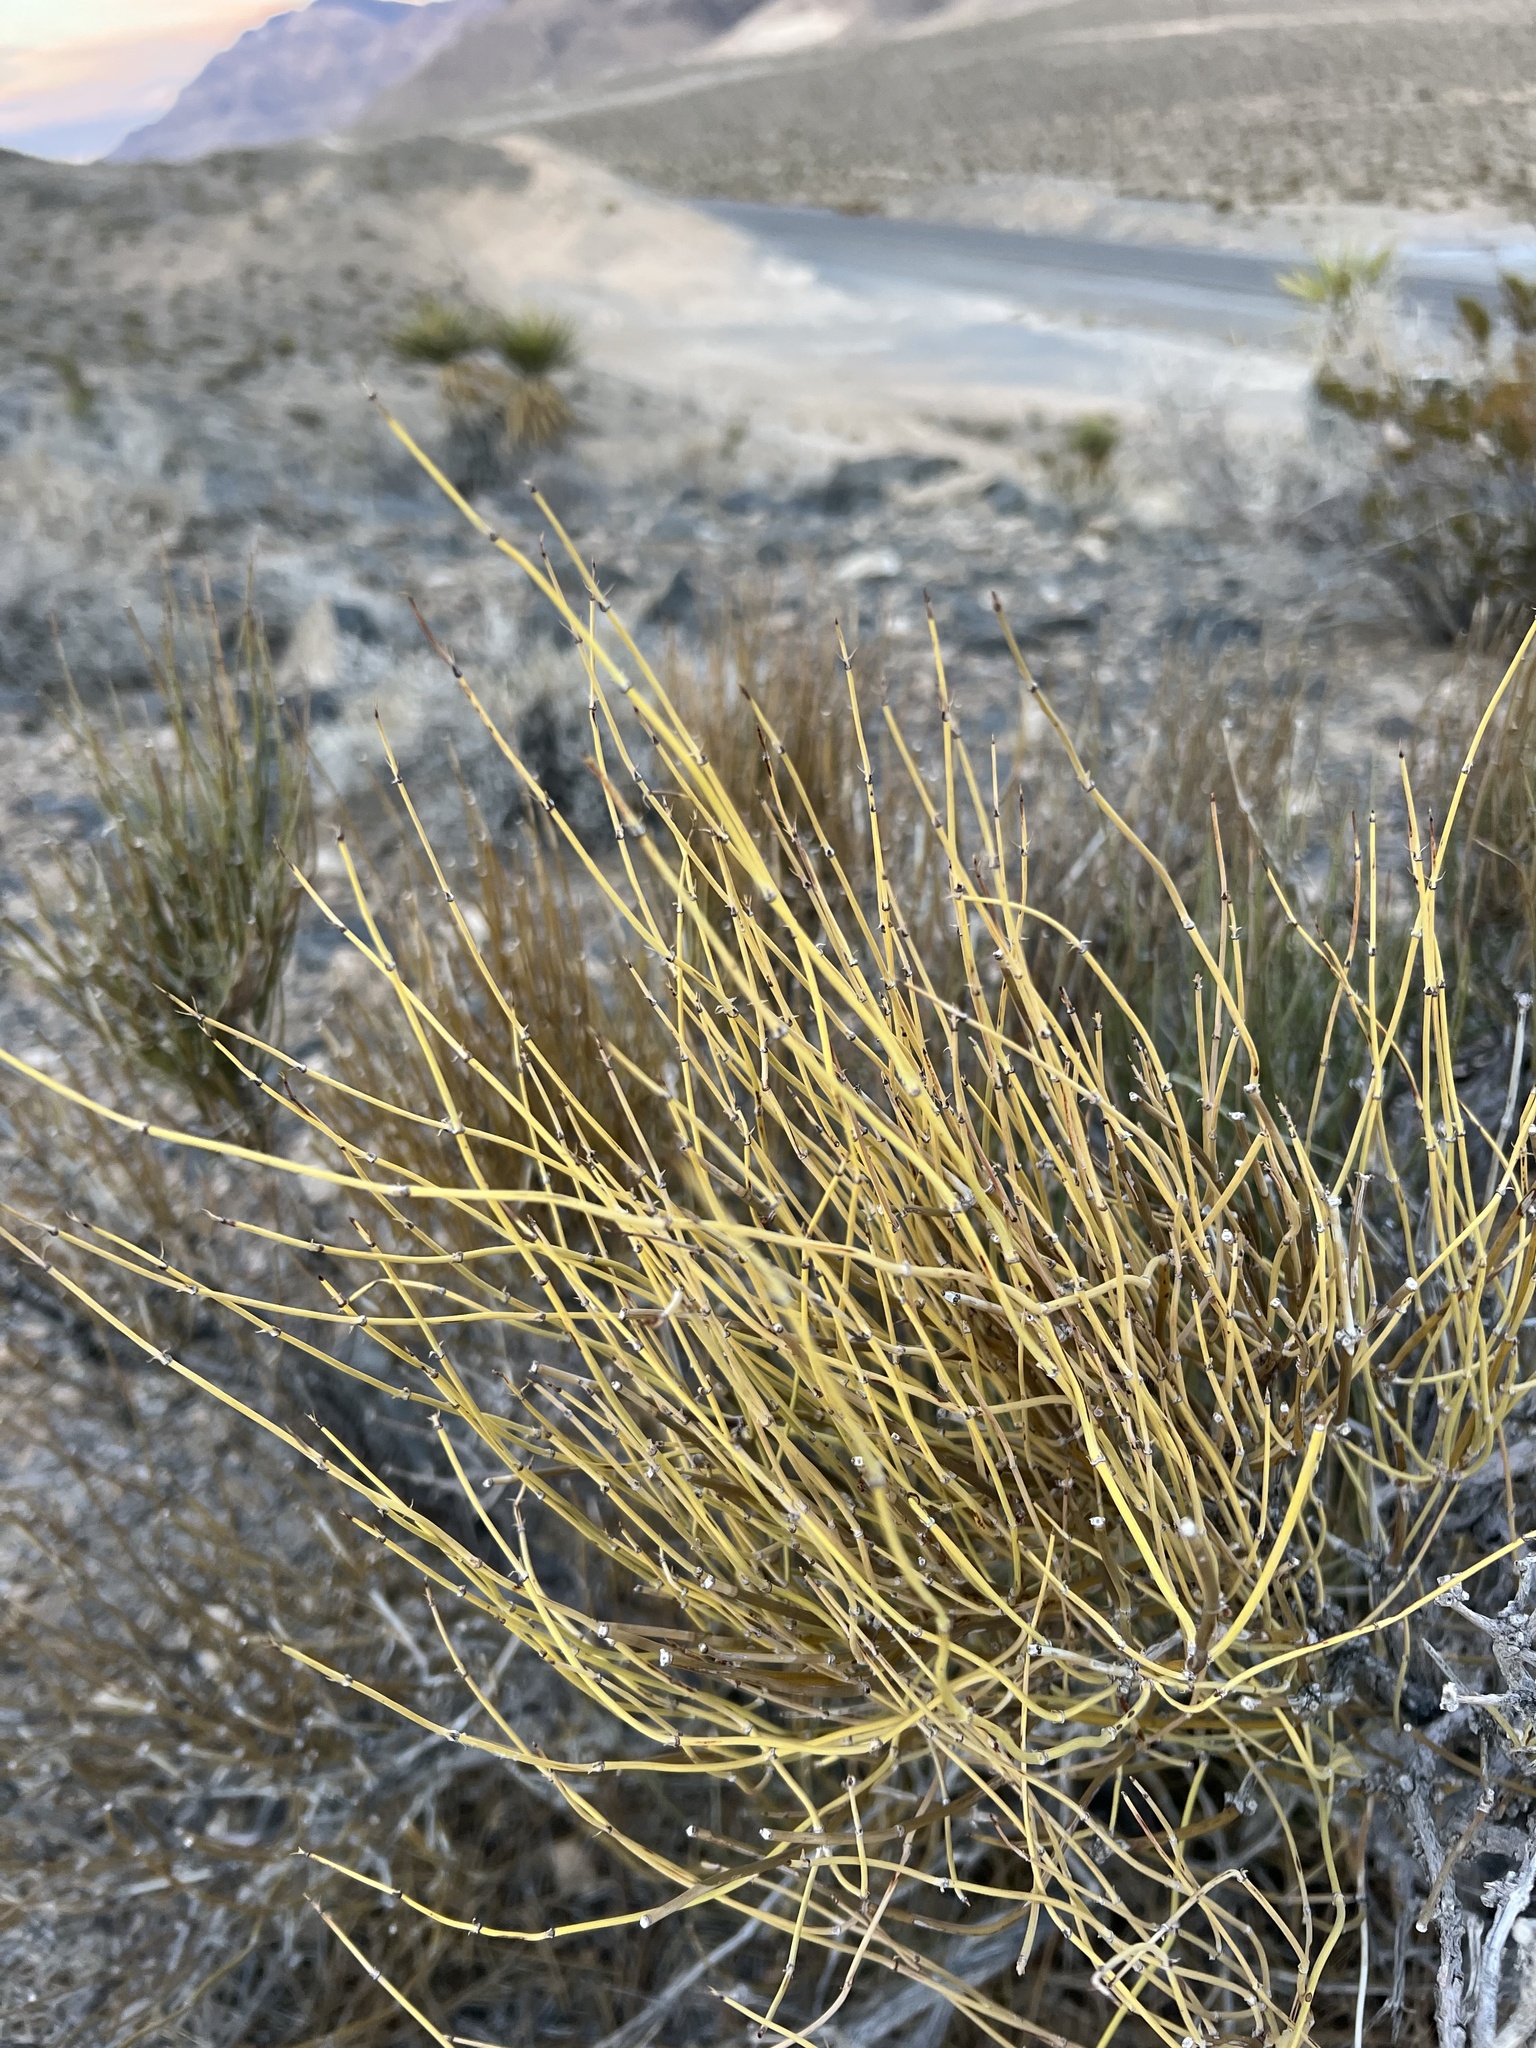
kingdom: Plantae
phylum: Tracheophyta
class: Gnetopsida
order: Ephedrales
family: Ephedraceae
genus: Ephedra
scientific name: Ephedra viridis
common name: Green ephedra
